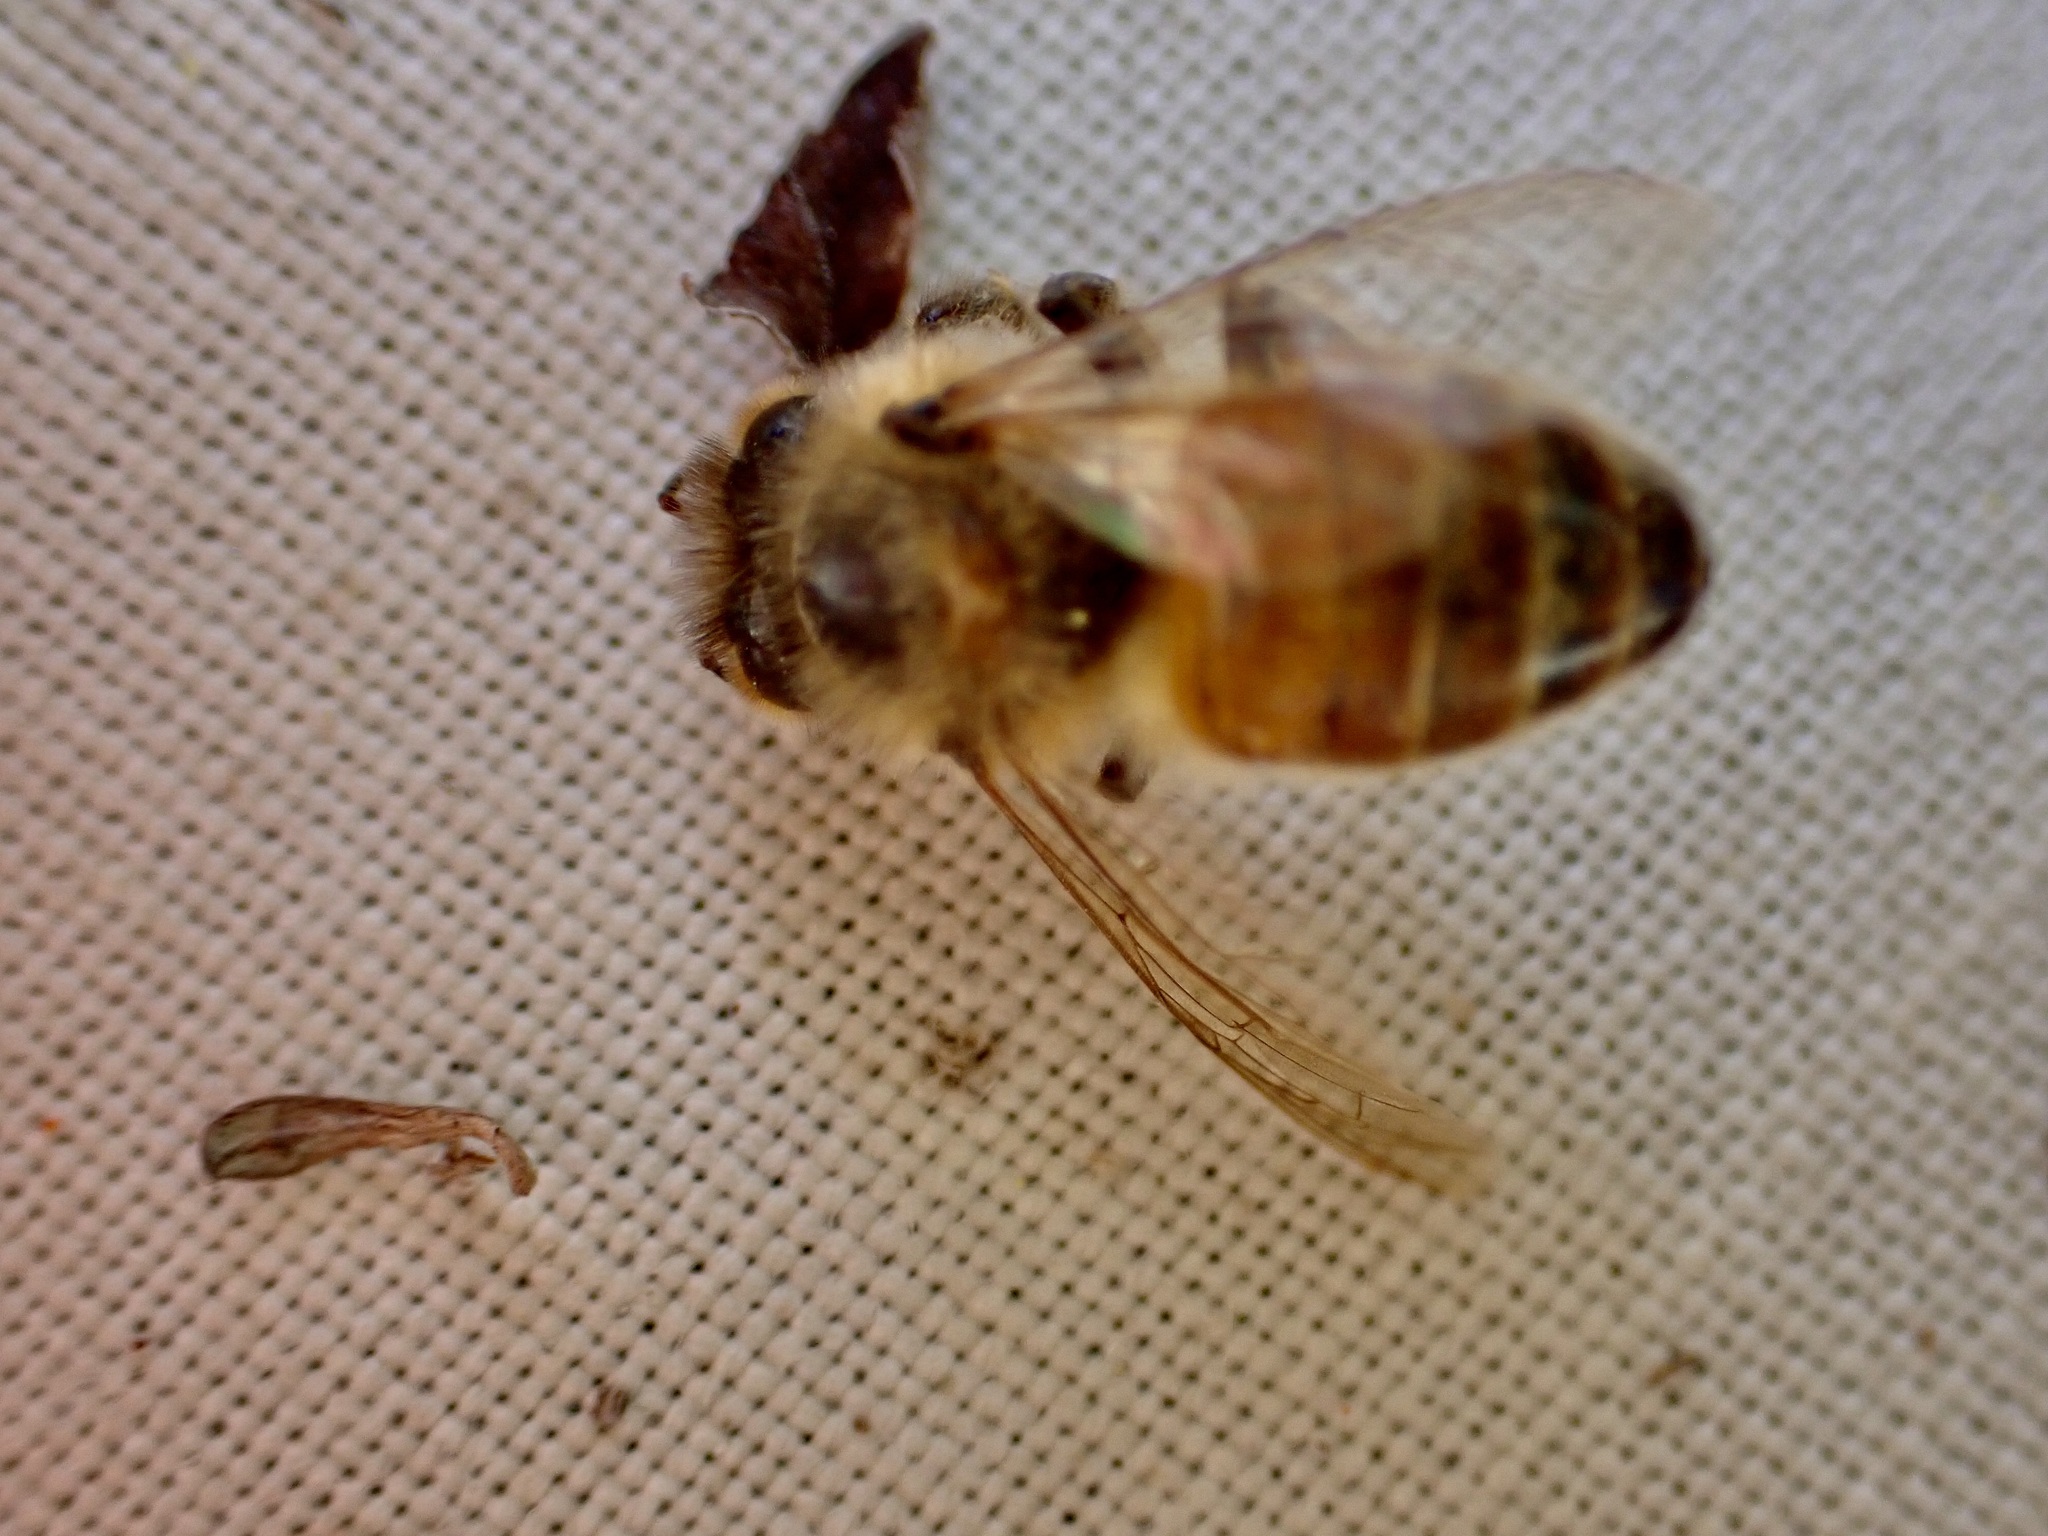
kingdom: Animalia
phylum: Arthropoda
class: Insecta
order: Hymenoptera
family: Apidae
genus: Apis
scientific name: Apis mellifera
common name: Honey bee
